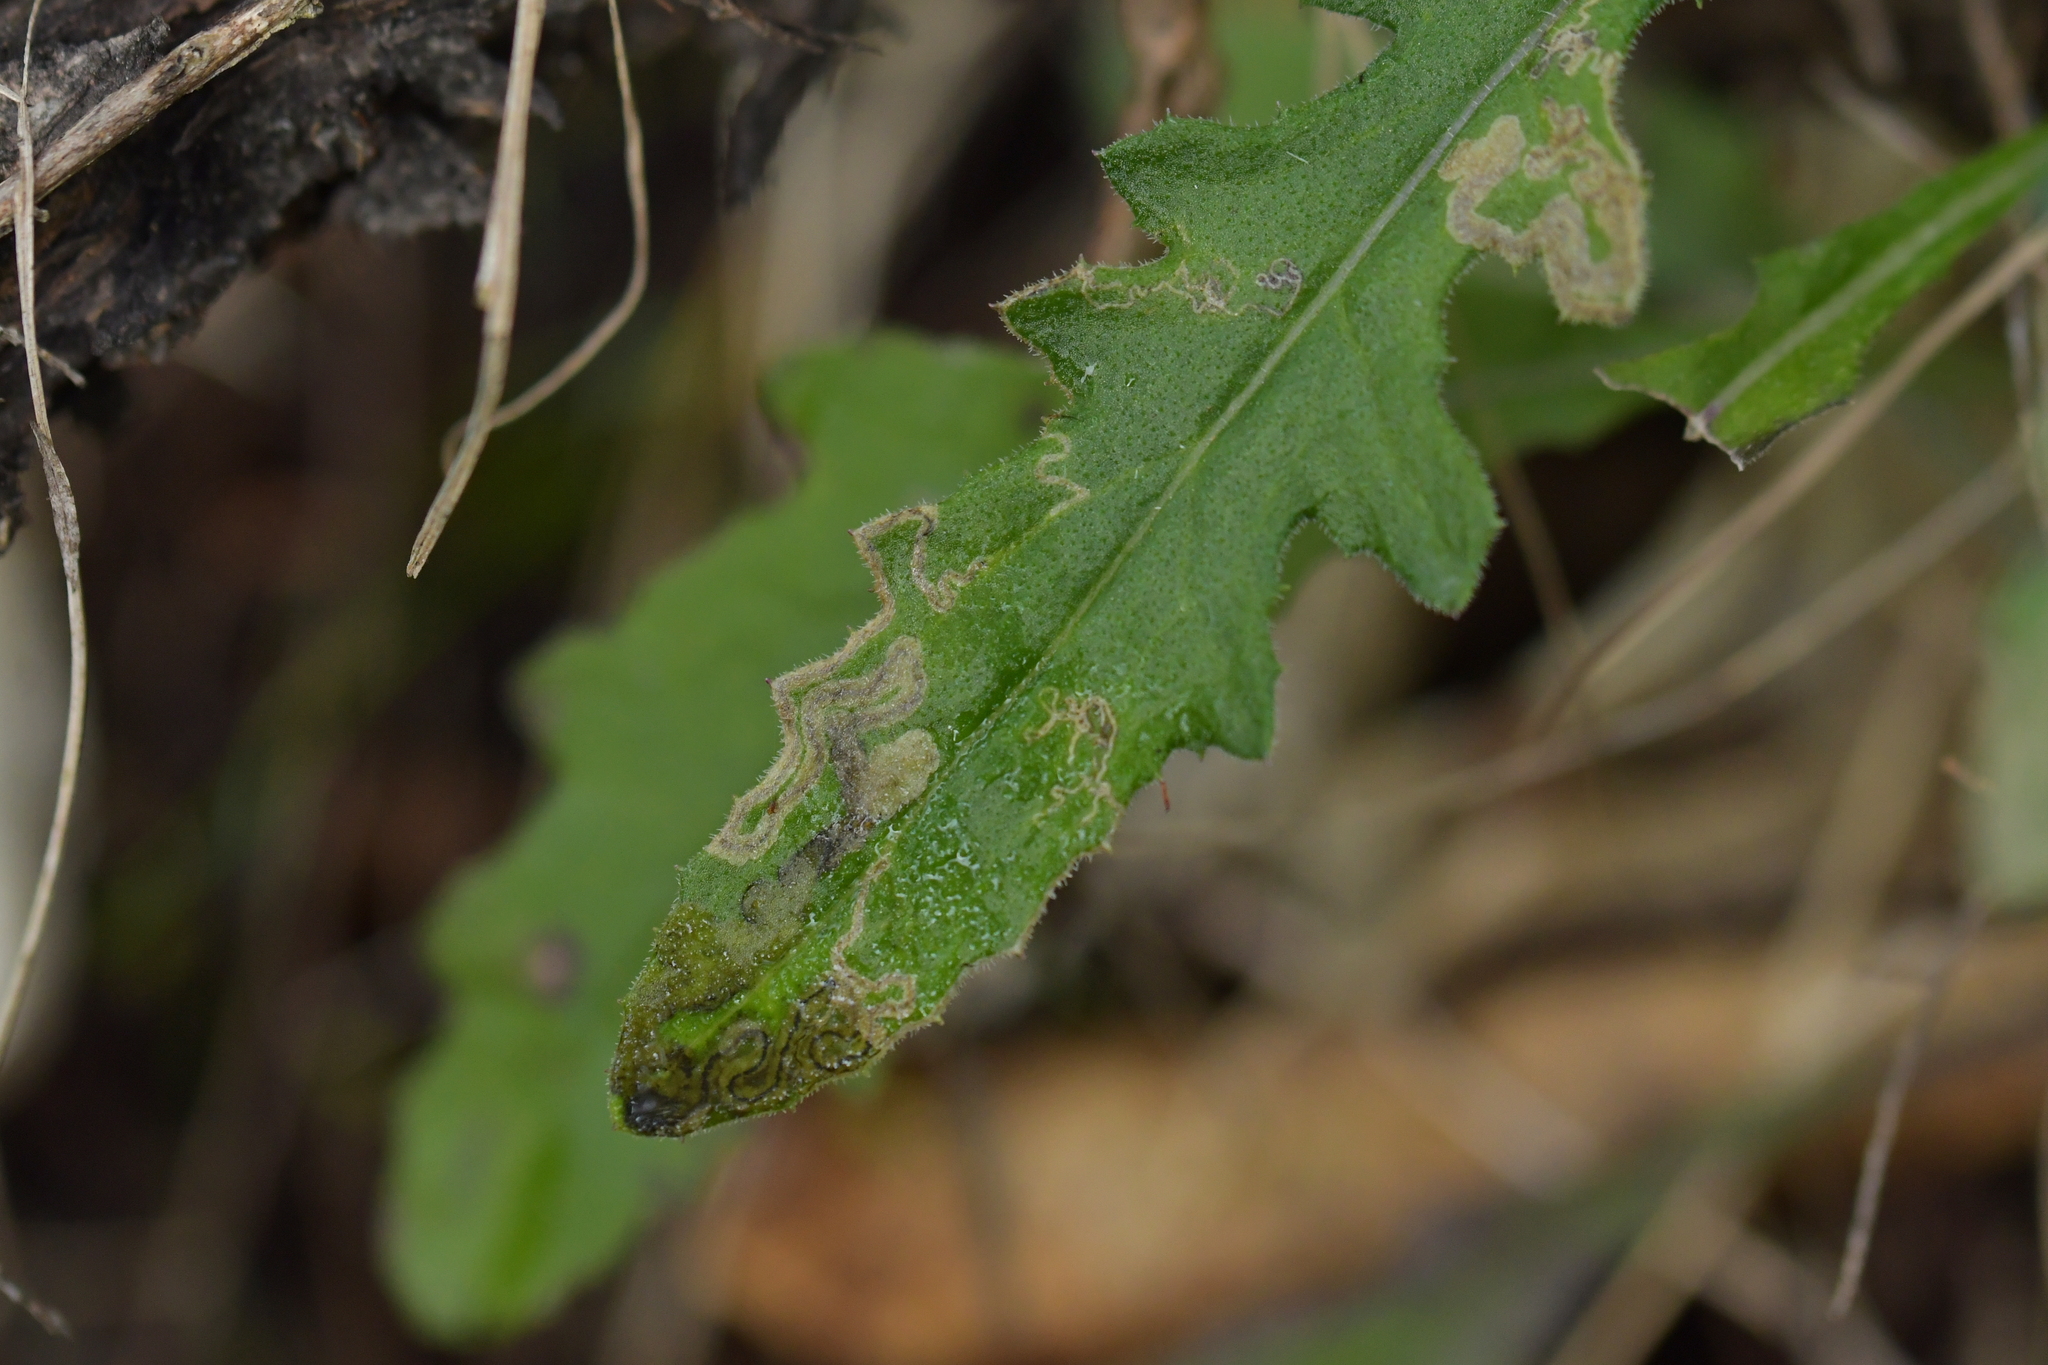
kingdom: Animalia
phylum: Arthropoda
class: Insecta
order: Lepidoptera
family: Nepticulidae
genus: Stigmella
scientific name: Stigmella ogygia
